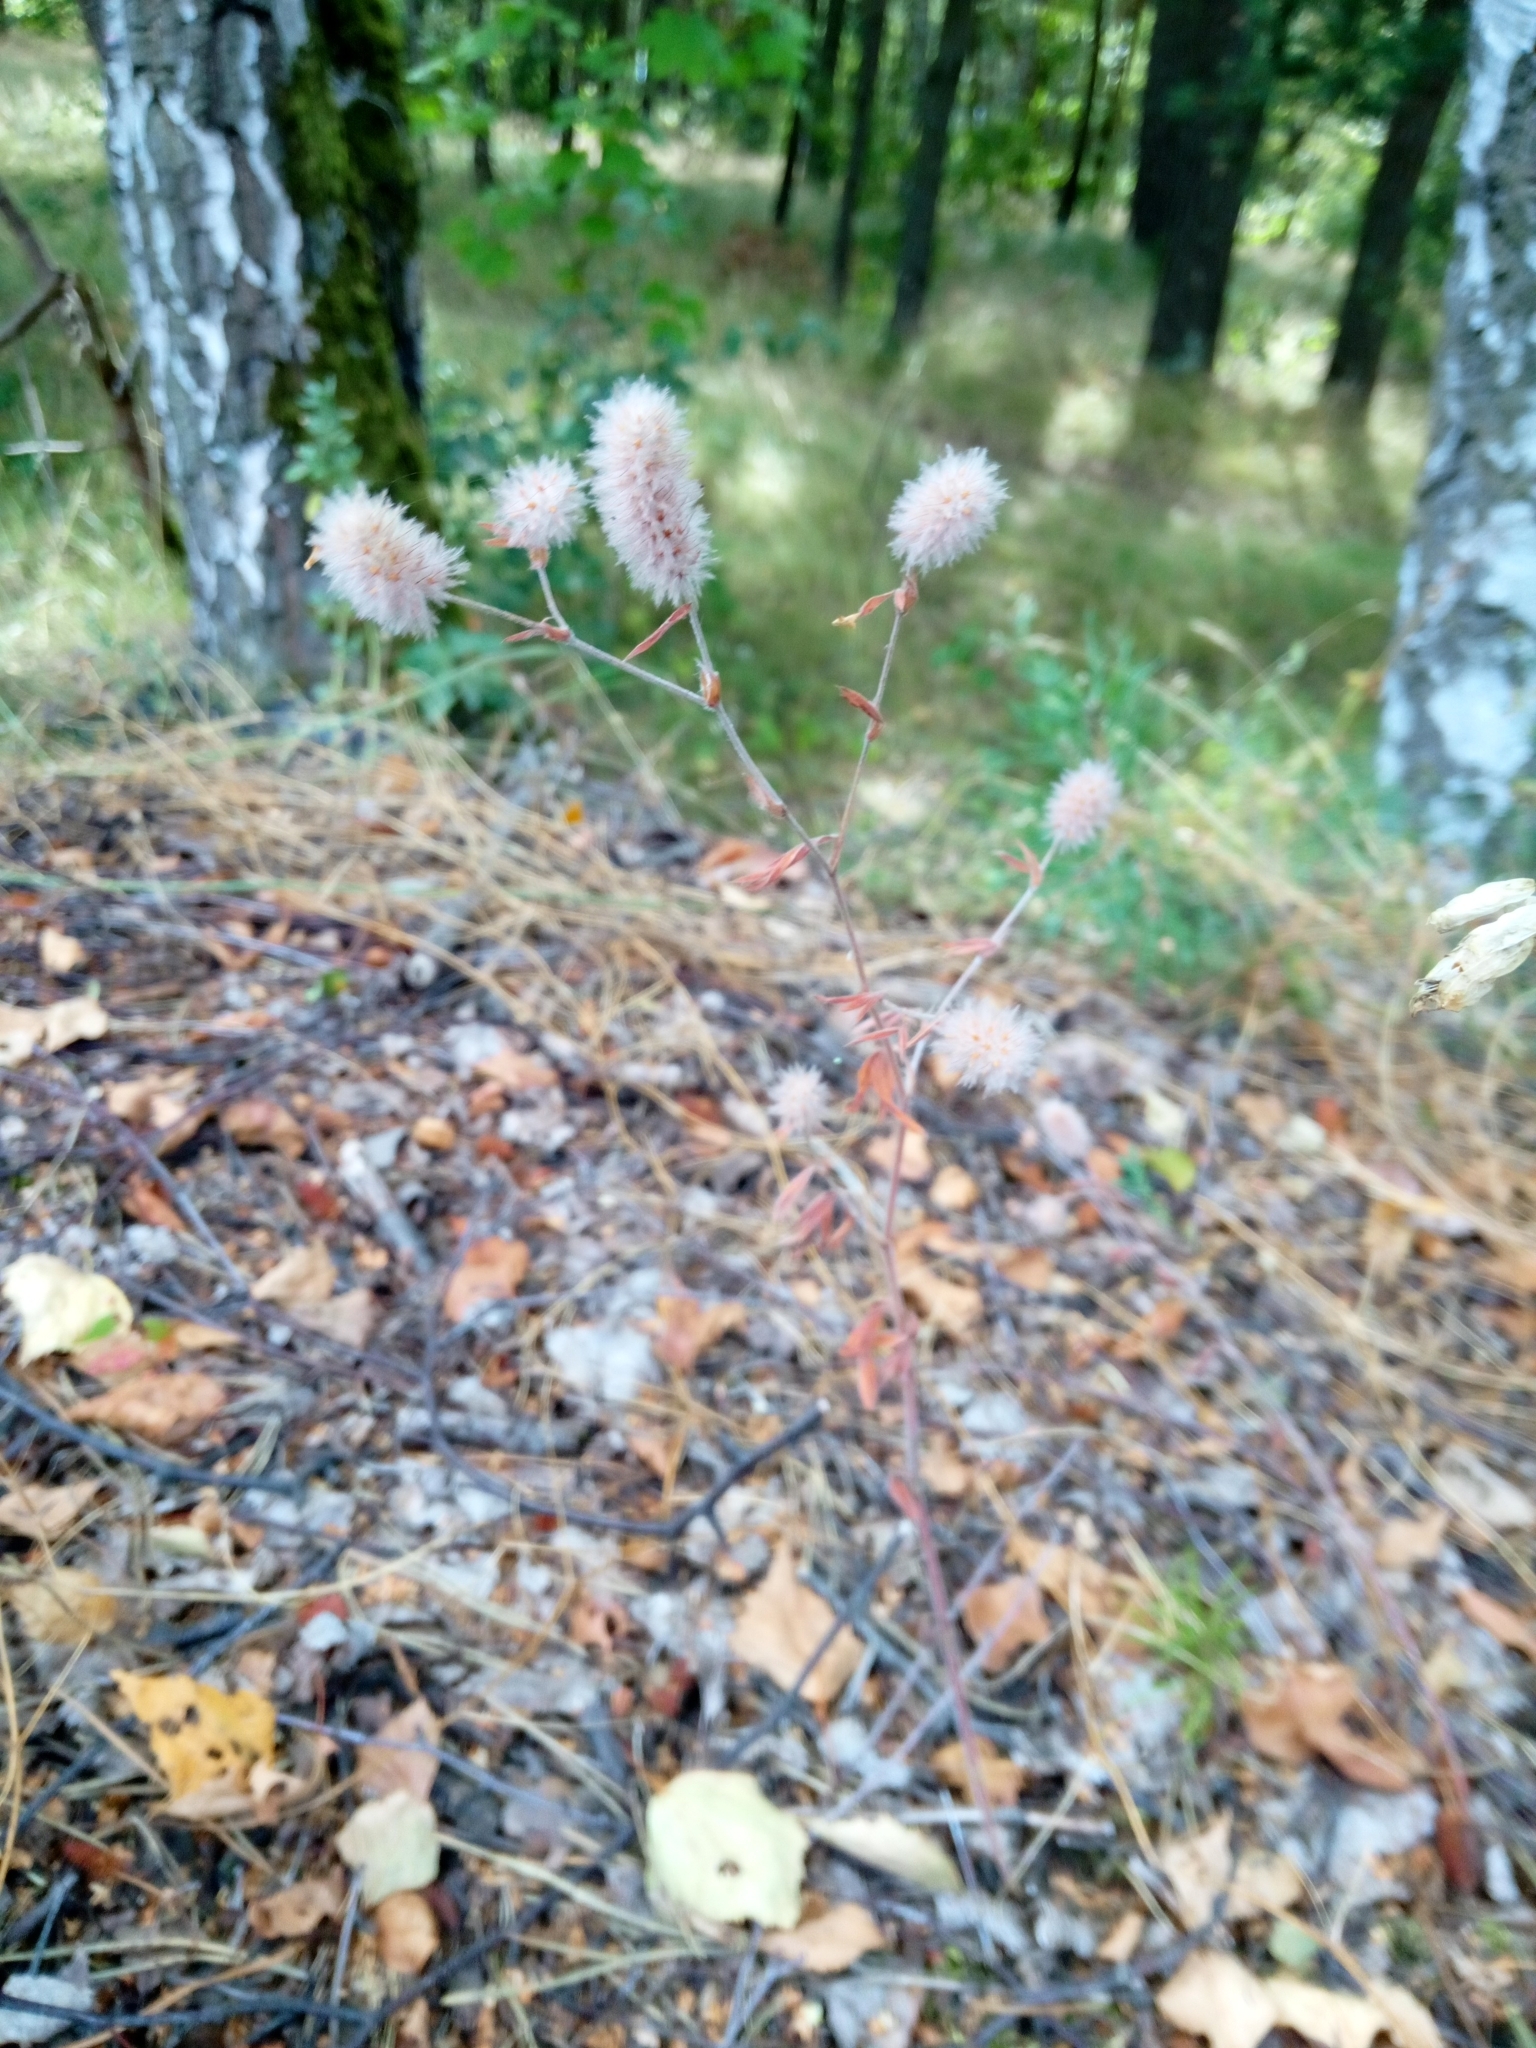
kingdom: Plantae
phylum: Tracheophyta
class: Magnoliopsida
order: Fabales
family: Fabaceae
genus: Trifolium
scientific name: Trifolium arvense
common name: Hare's-foot clover
